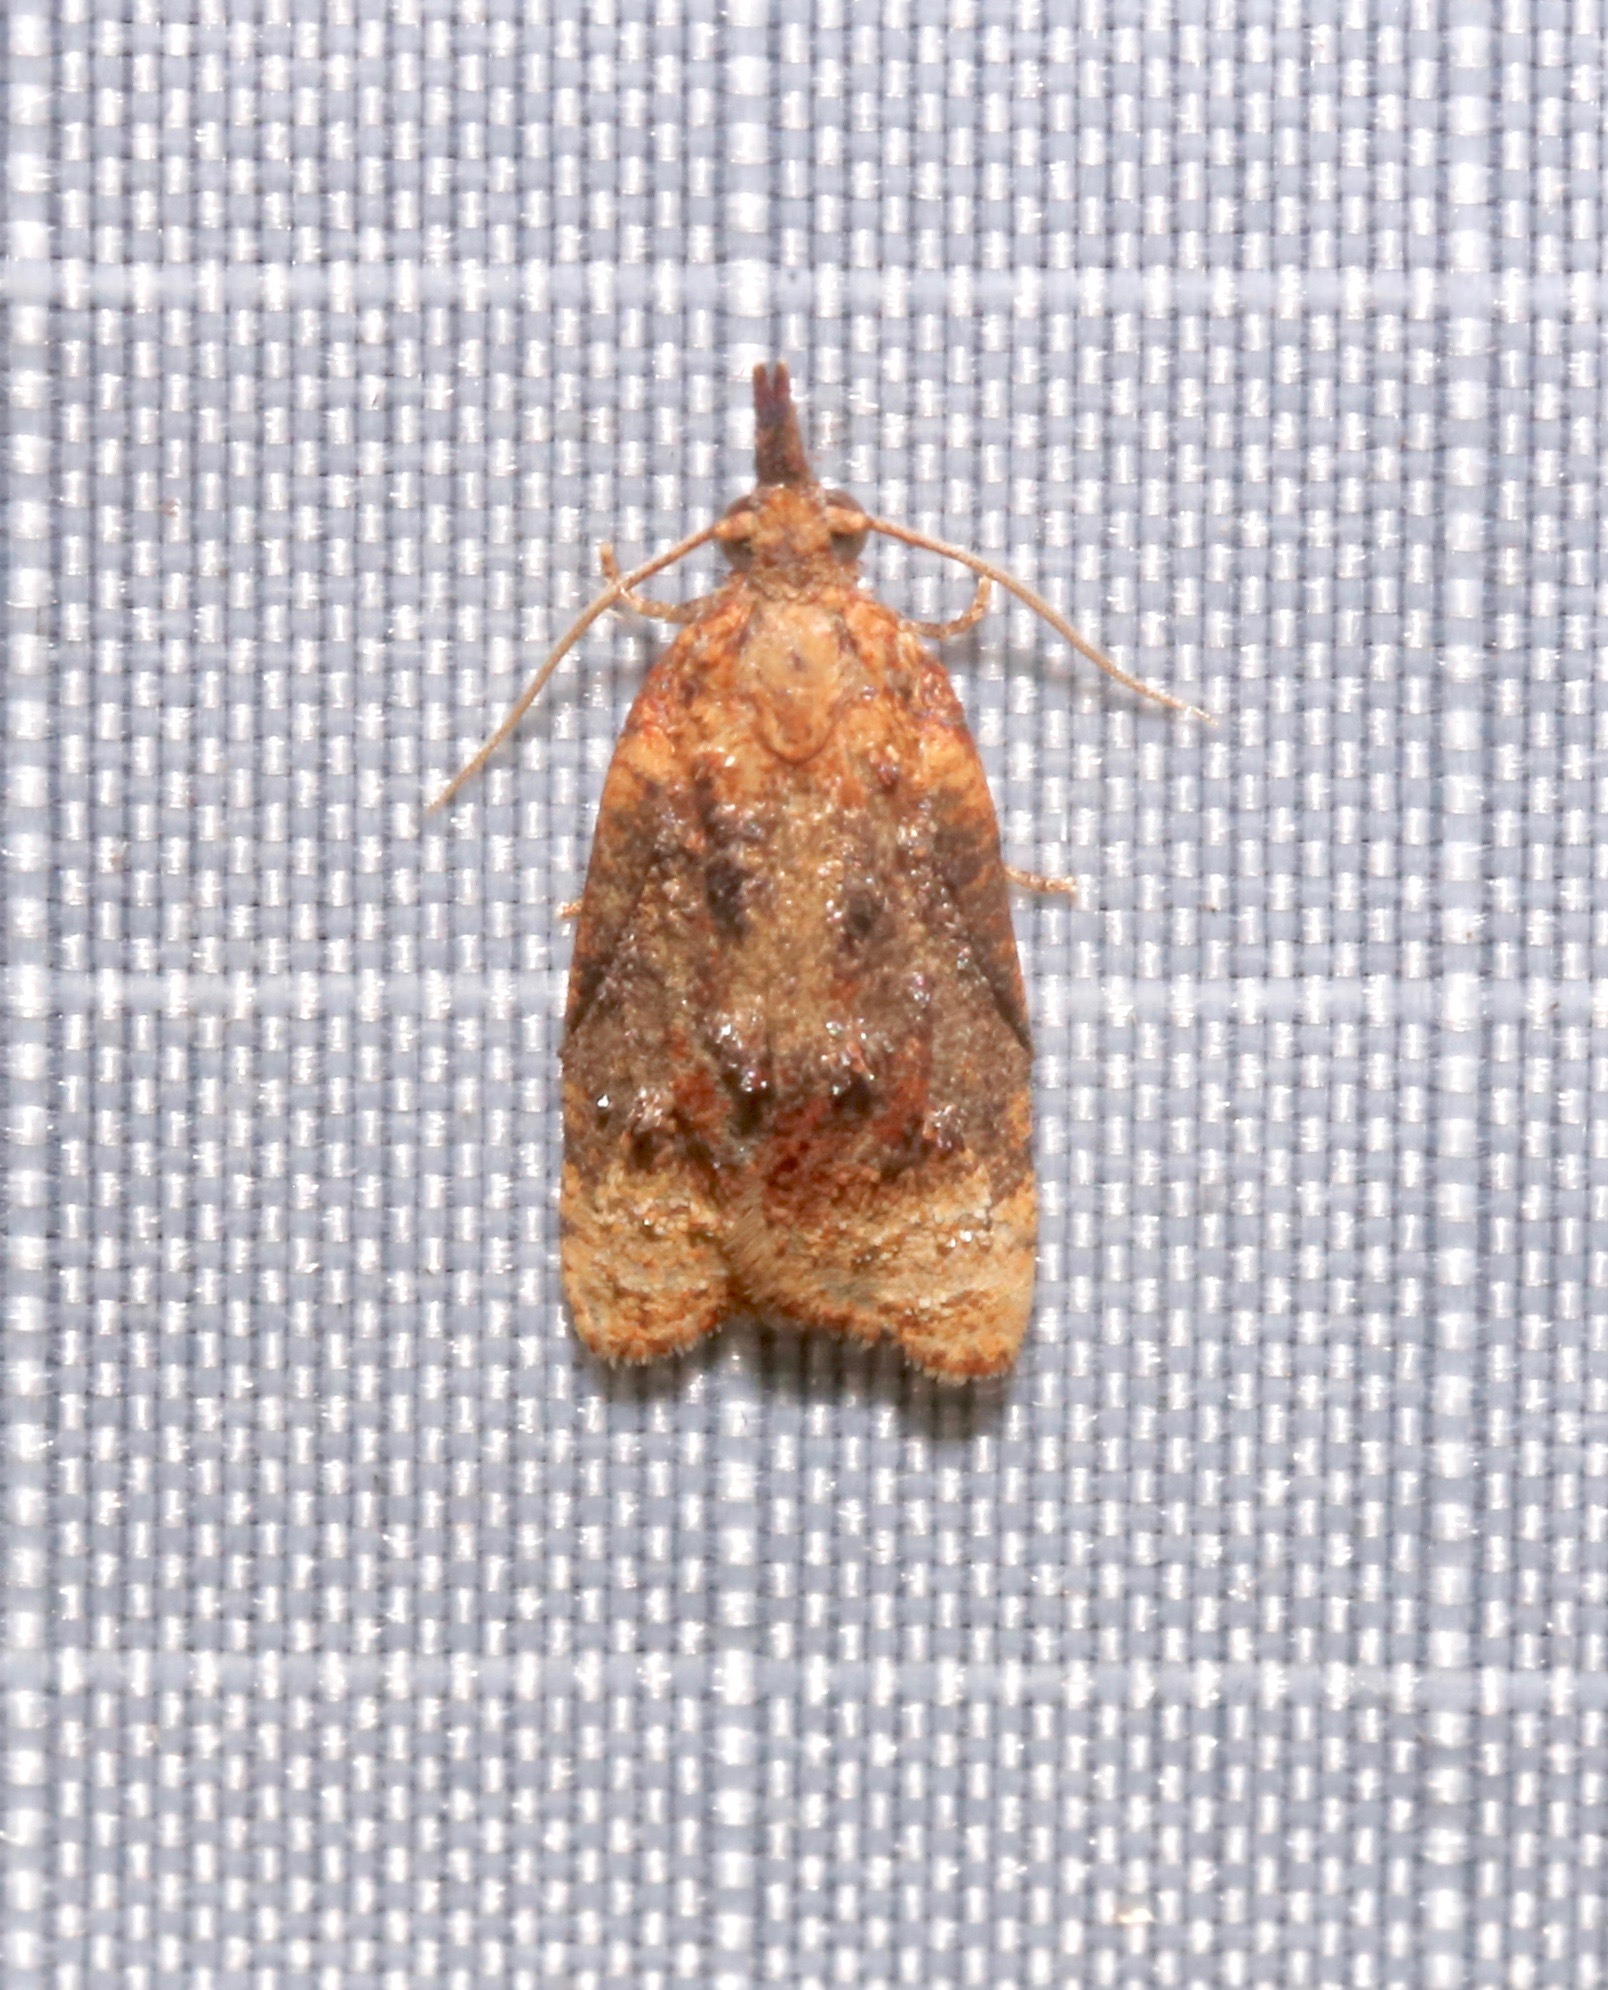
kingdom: Animalia
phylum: Arthropoda
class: Insecta
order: Lepidoptera
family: Tortricidae
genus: Platynota
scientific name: Platynota flavedana
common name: Black-shaded platynota moth
